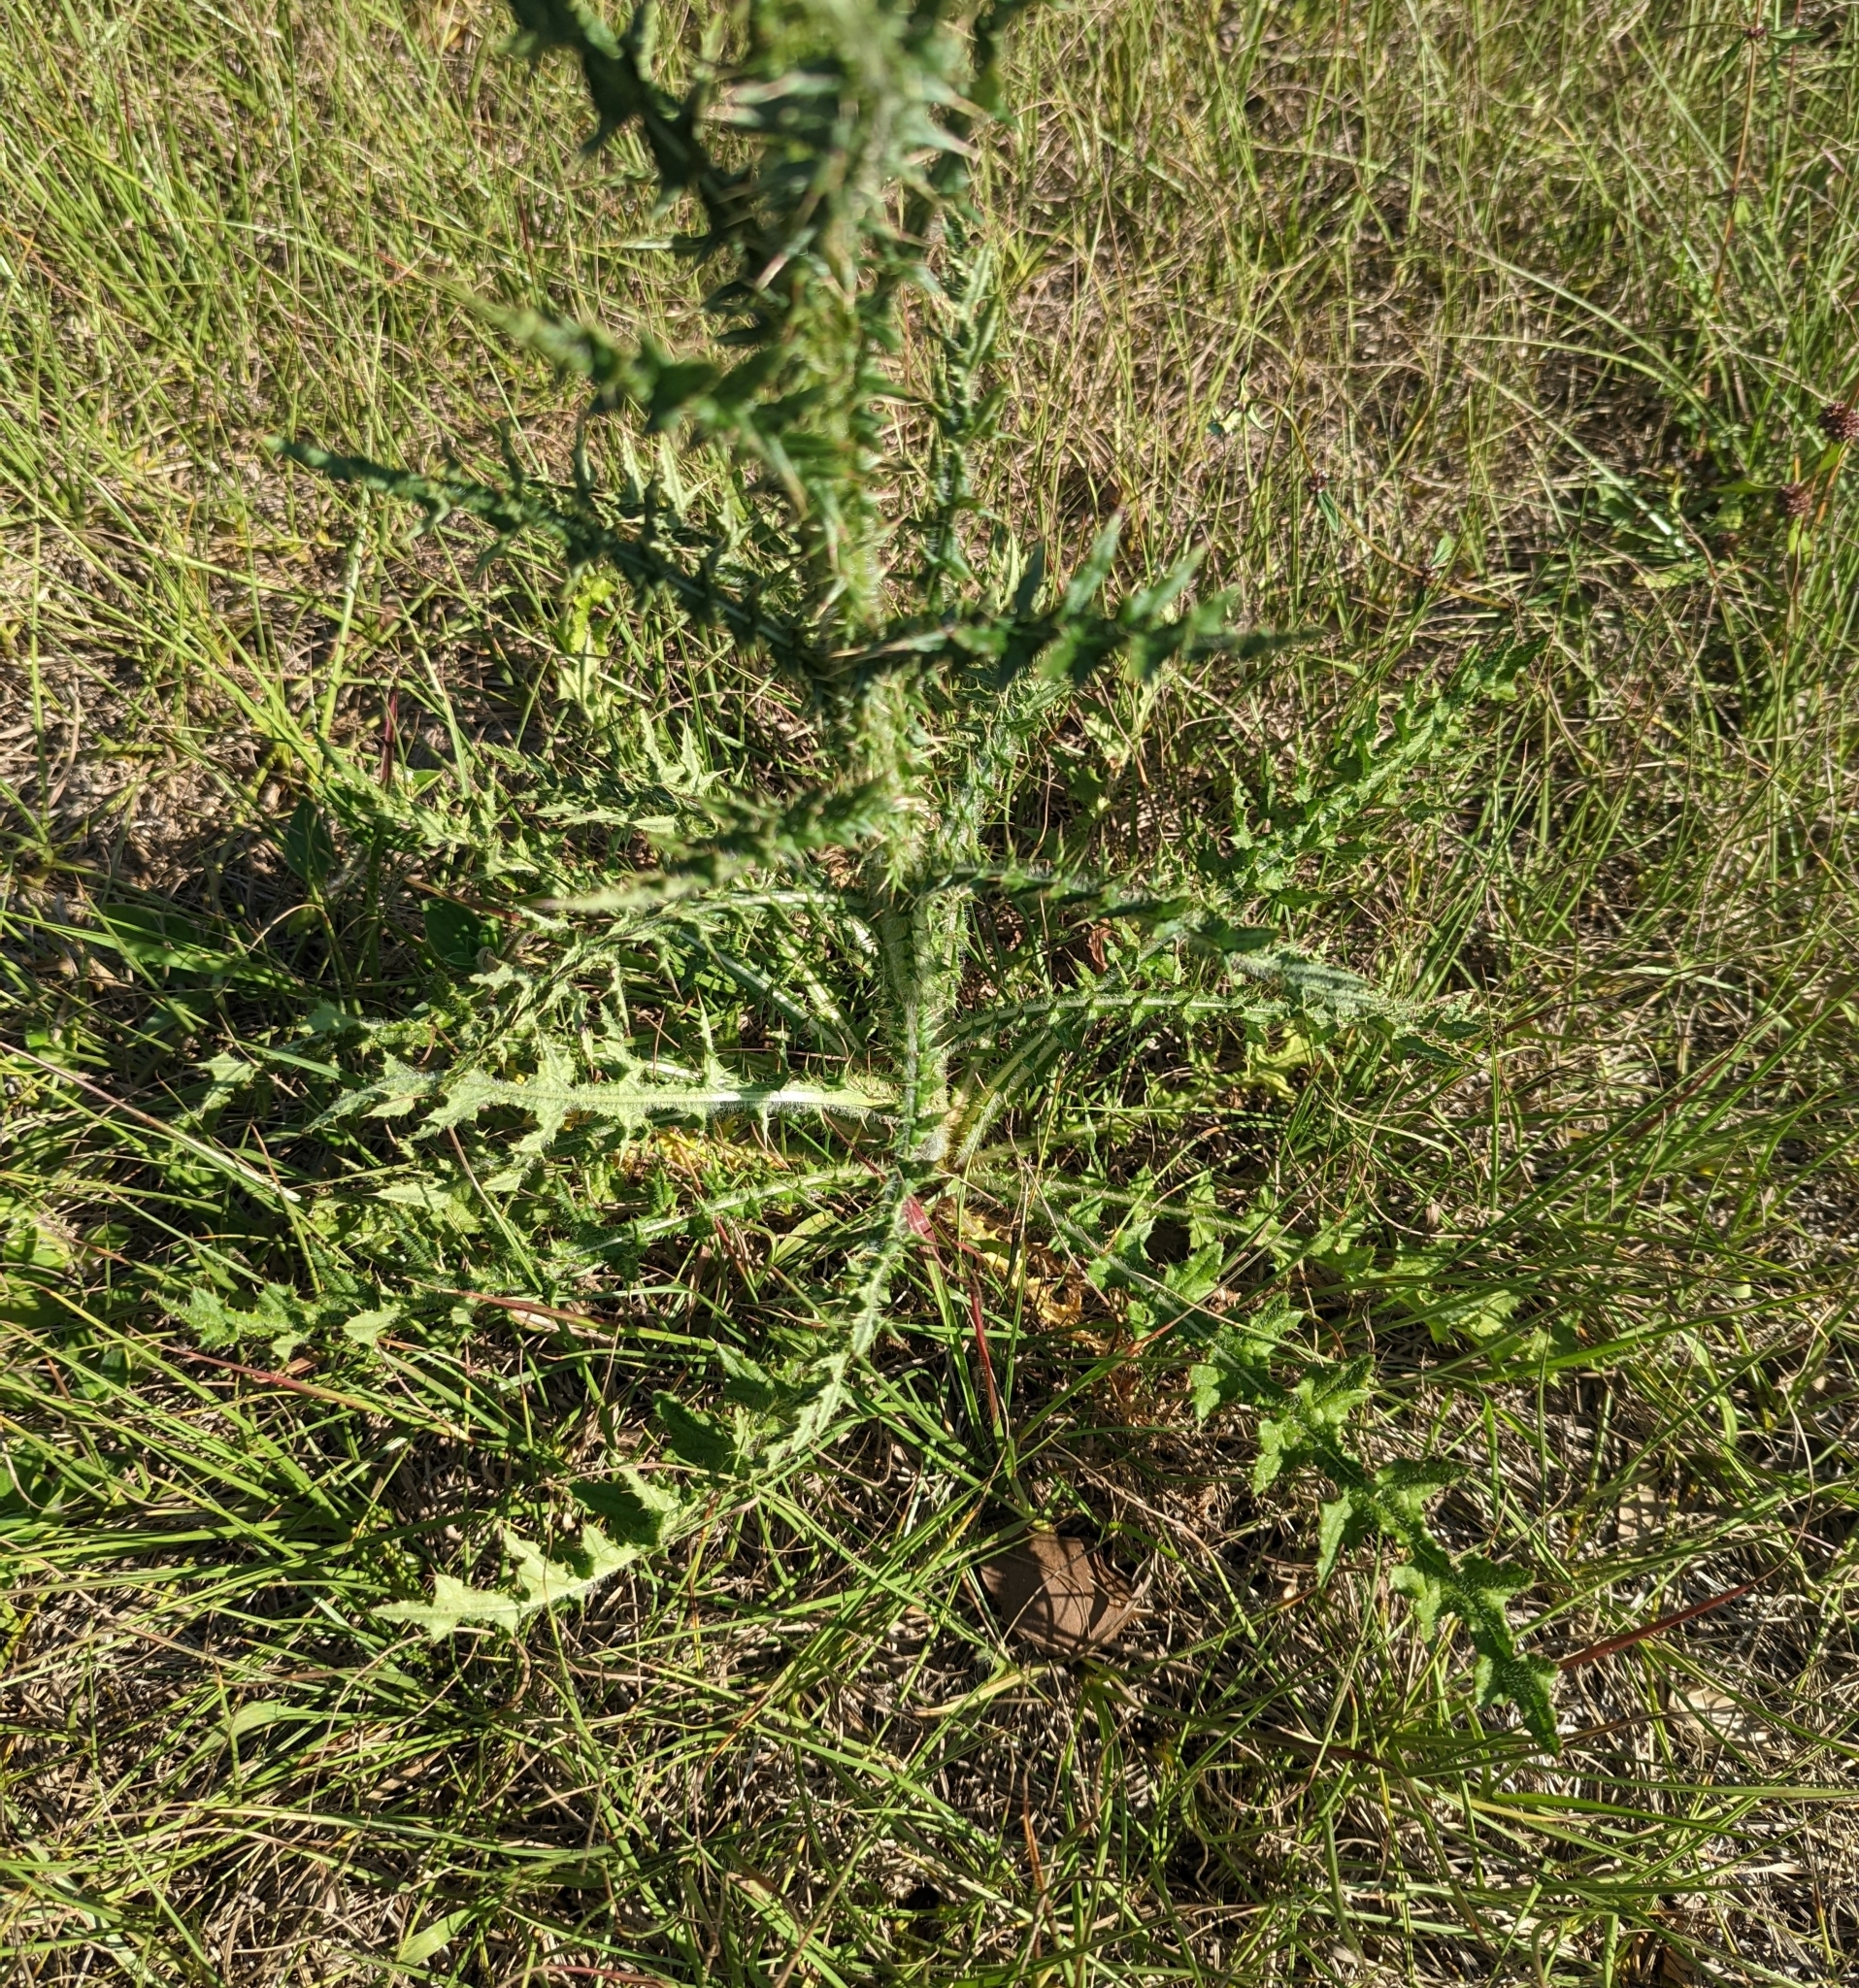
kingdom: Plantae
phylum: Tracheophyta
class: Magnoliopsida
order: Asterales
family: Asteraceae
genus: Cirsium
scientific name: Cirsium nuttalii
